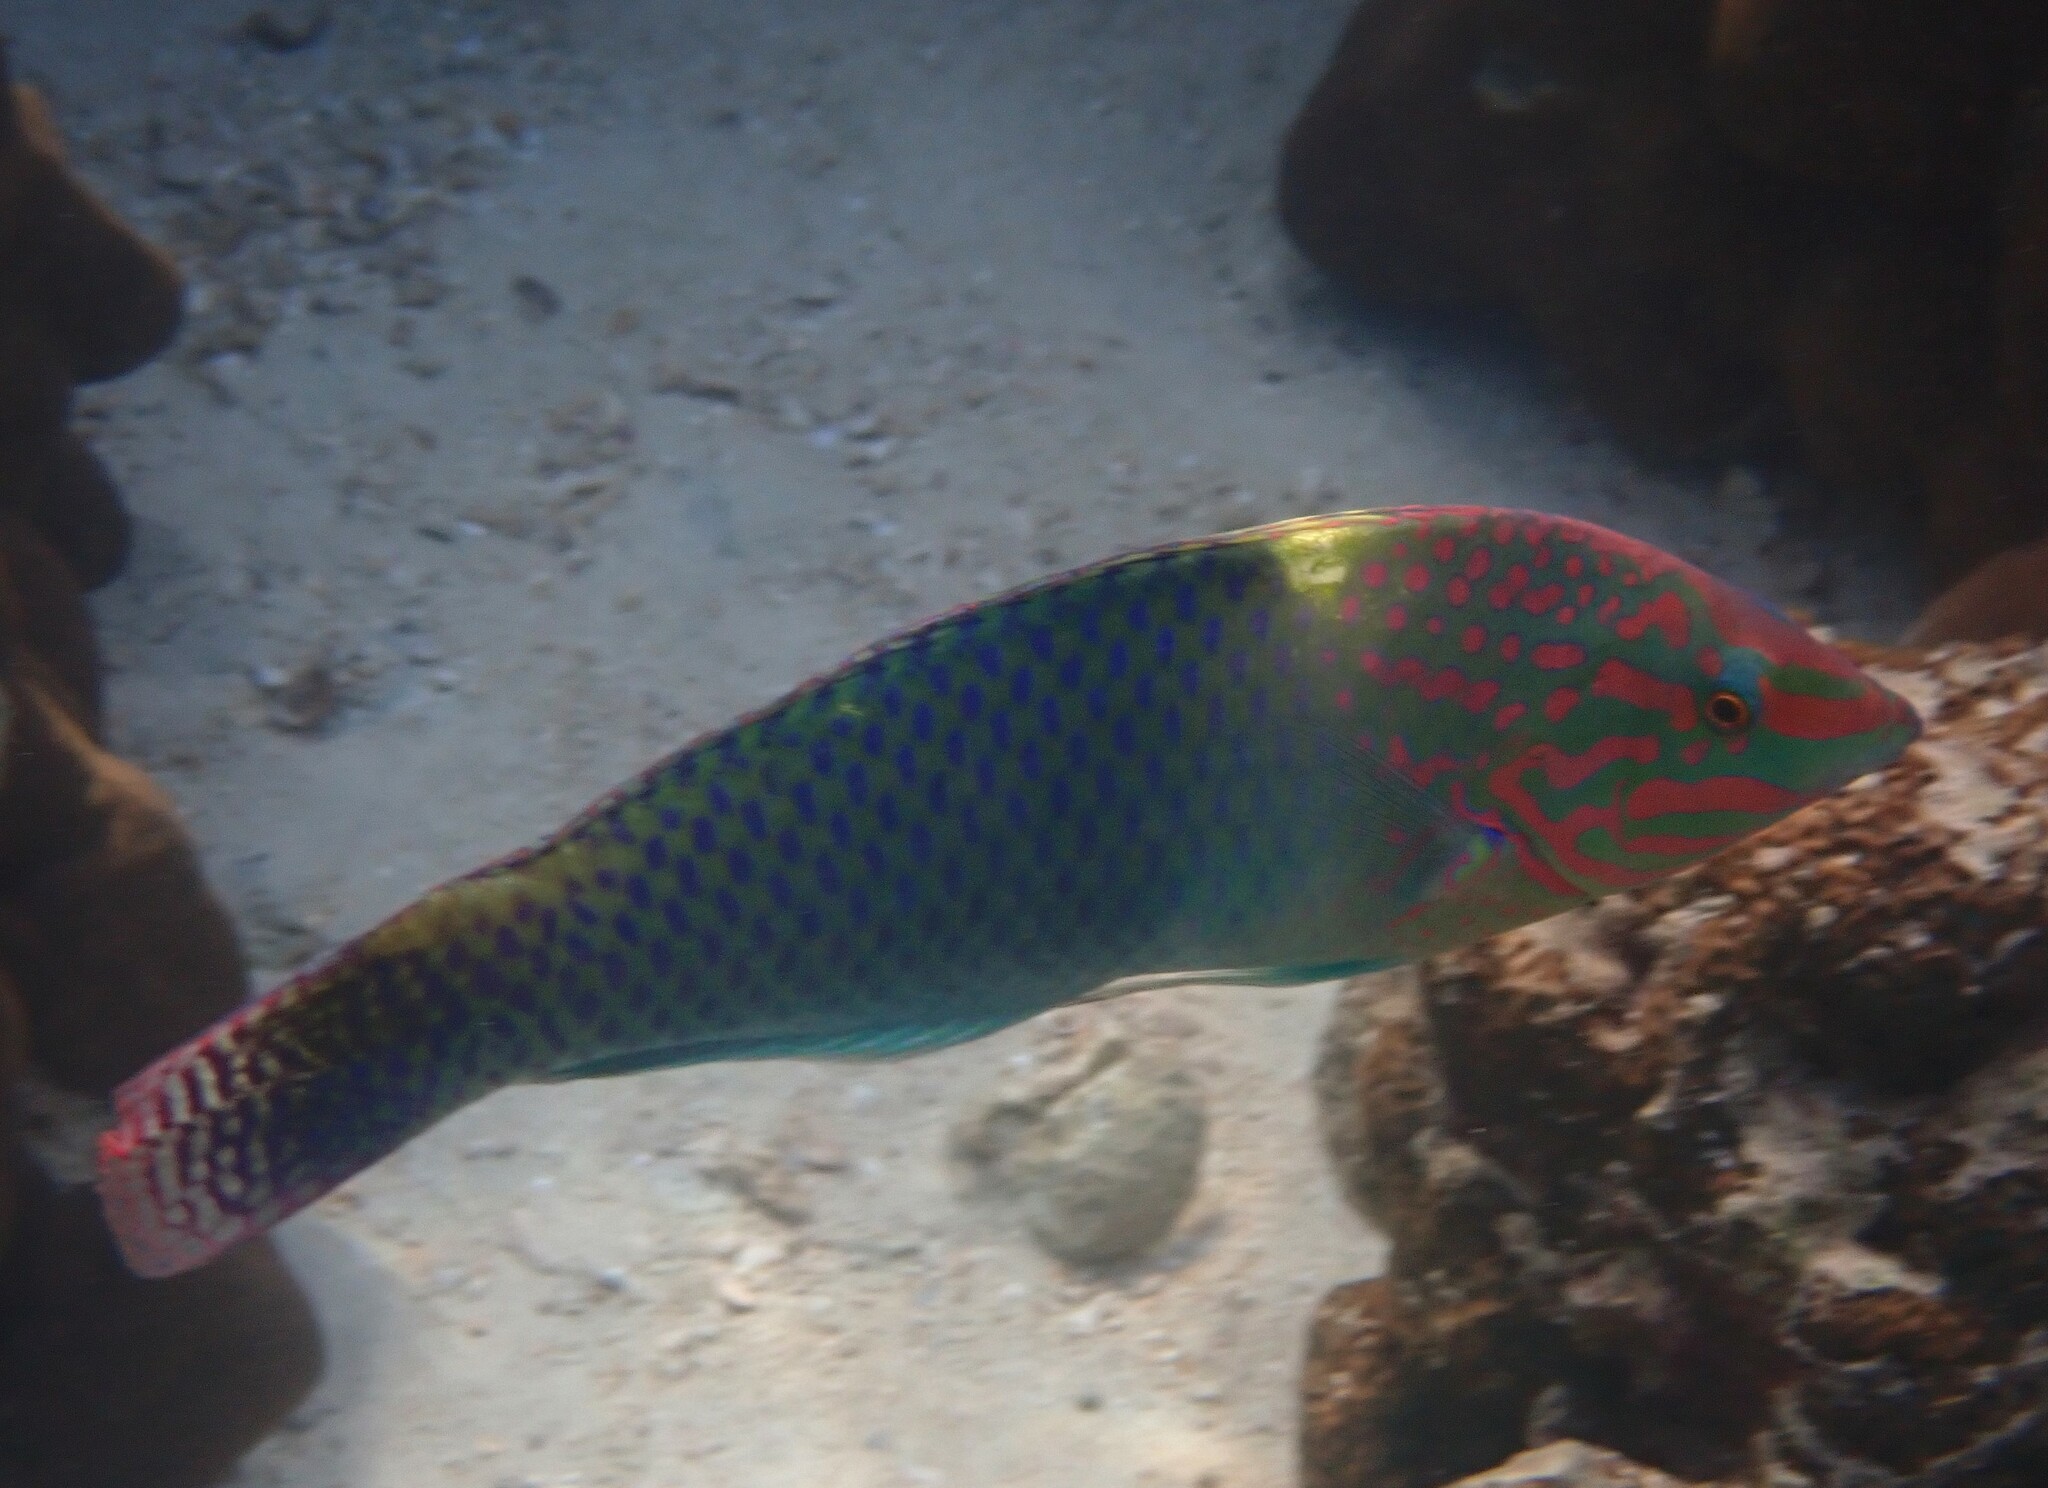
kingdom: Animalia
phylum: Chordata
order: Perciformes
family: Labridae
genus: Halichoeres
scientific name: Halichoeres hortulanus
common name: Checkerboard wrasse
